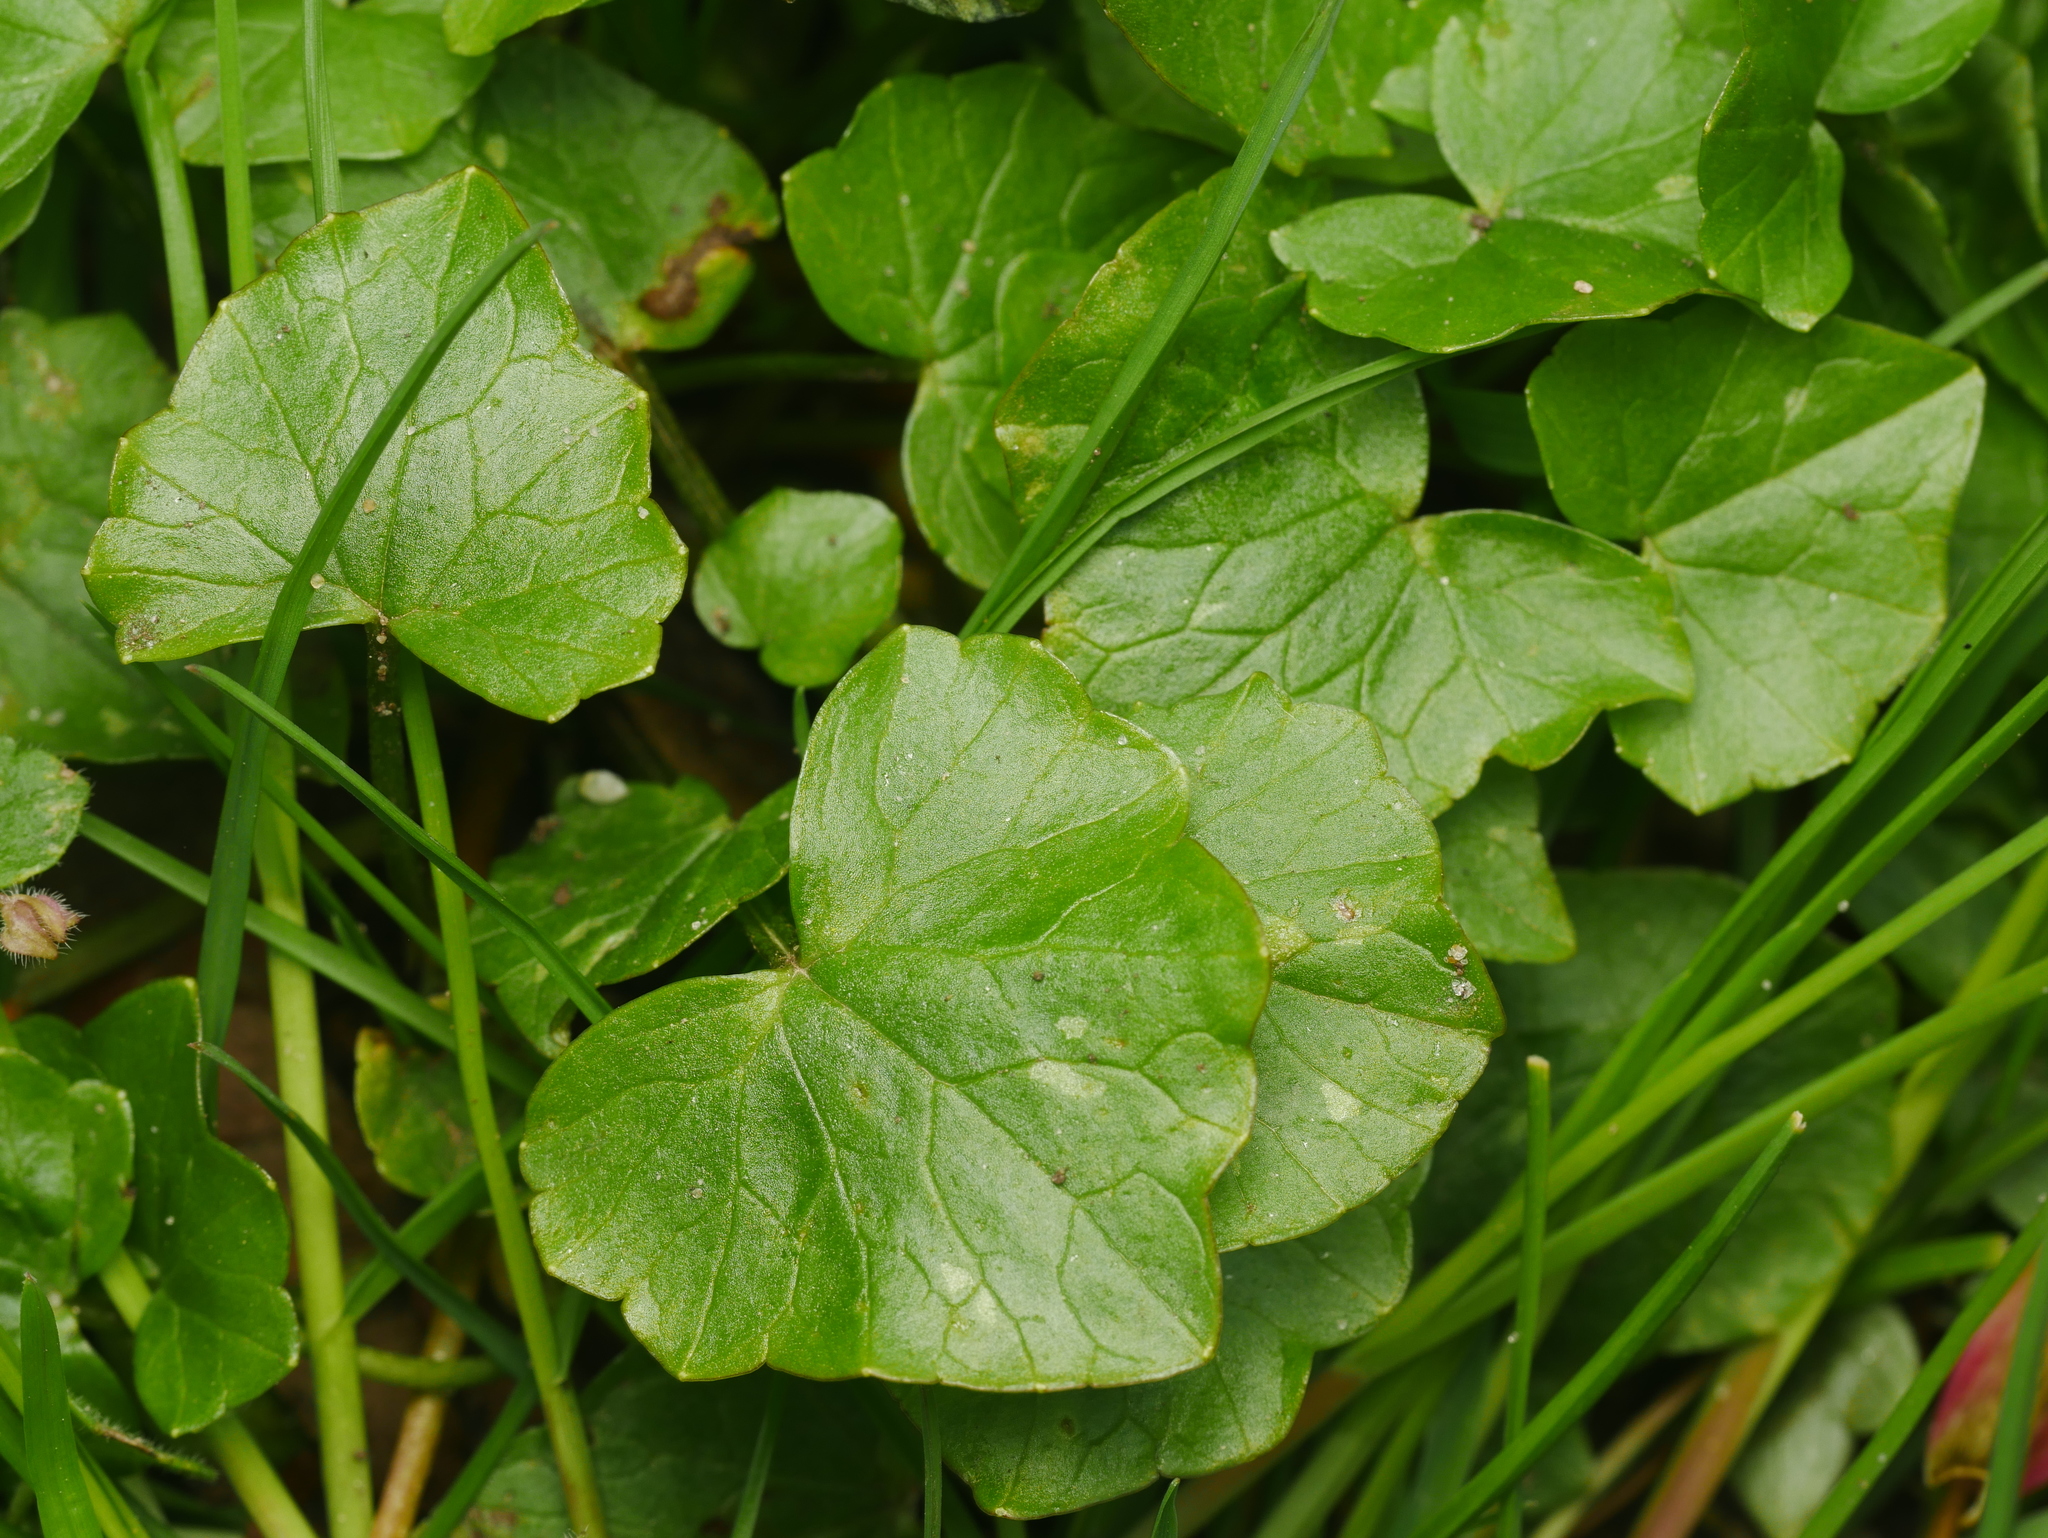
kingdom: Plantae
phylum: Tracheophyta
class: Magnoliopsida
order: Ranunculales
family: Ranunculaceae
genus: Ficaria
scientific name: Ficaria verna
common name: Lesser celandine
